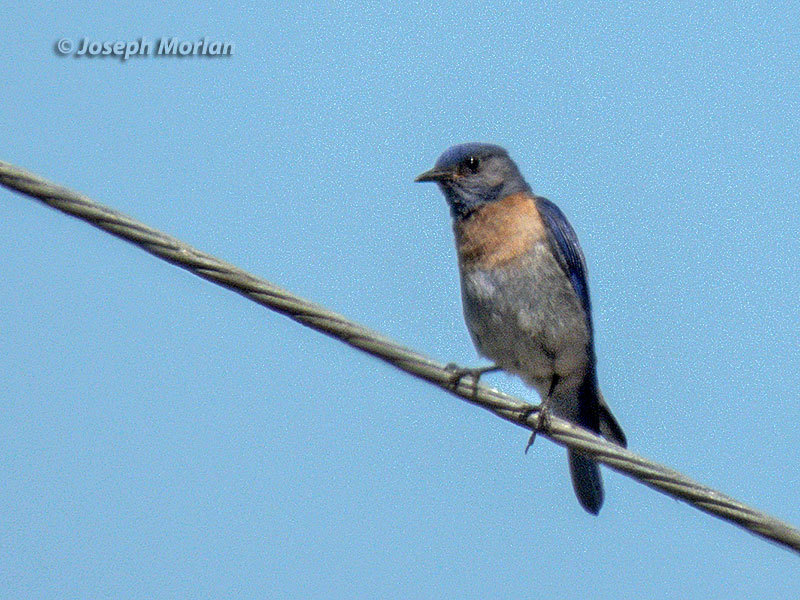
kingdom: Animalia
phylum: Chordata
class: Aves
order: Passeriformes
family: Turdidae
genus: Sialia
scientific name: Sialia mexicana
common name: Western bluebird
